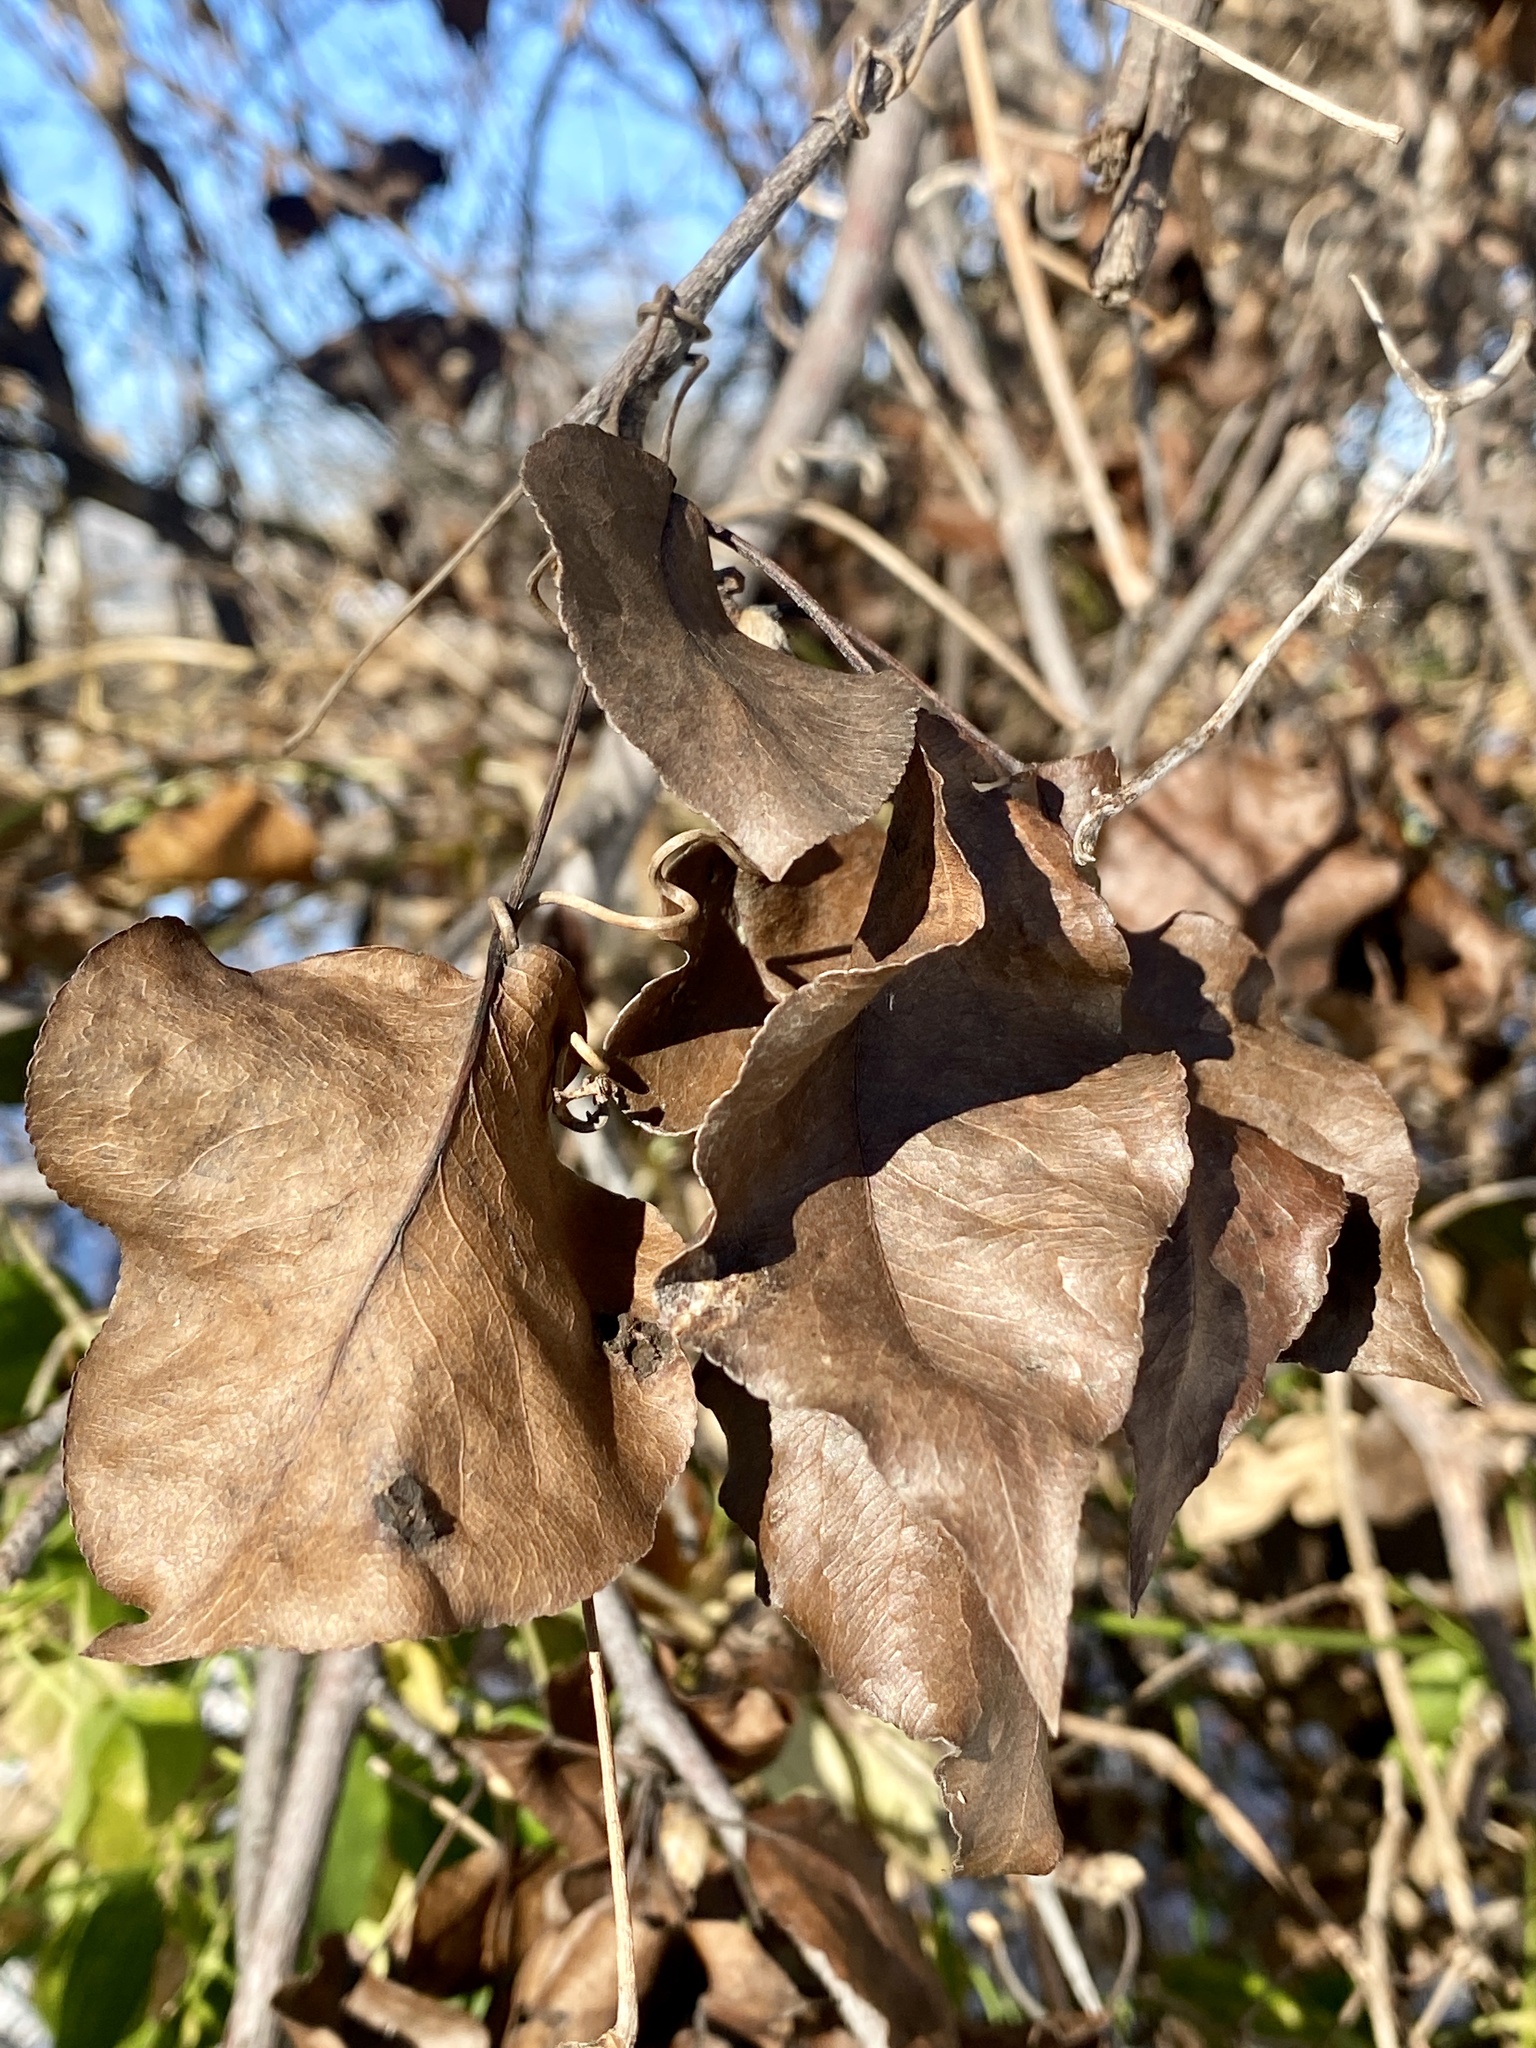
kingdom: Plantae
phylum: Tracheophyta
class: Magnoliopsida
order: Rosales
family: Rosaceae
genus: Pyrus
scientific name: Pyrus calleryana
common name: Callery pear
